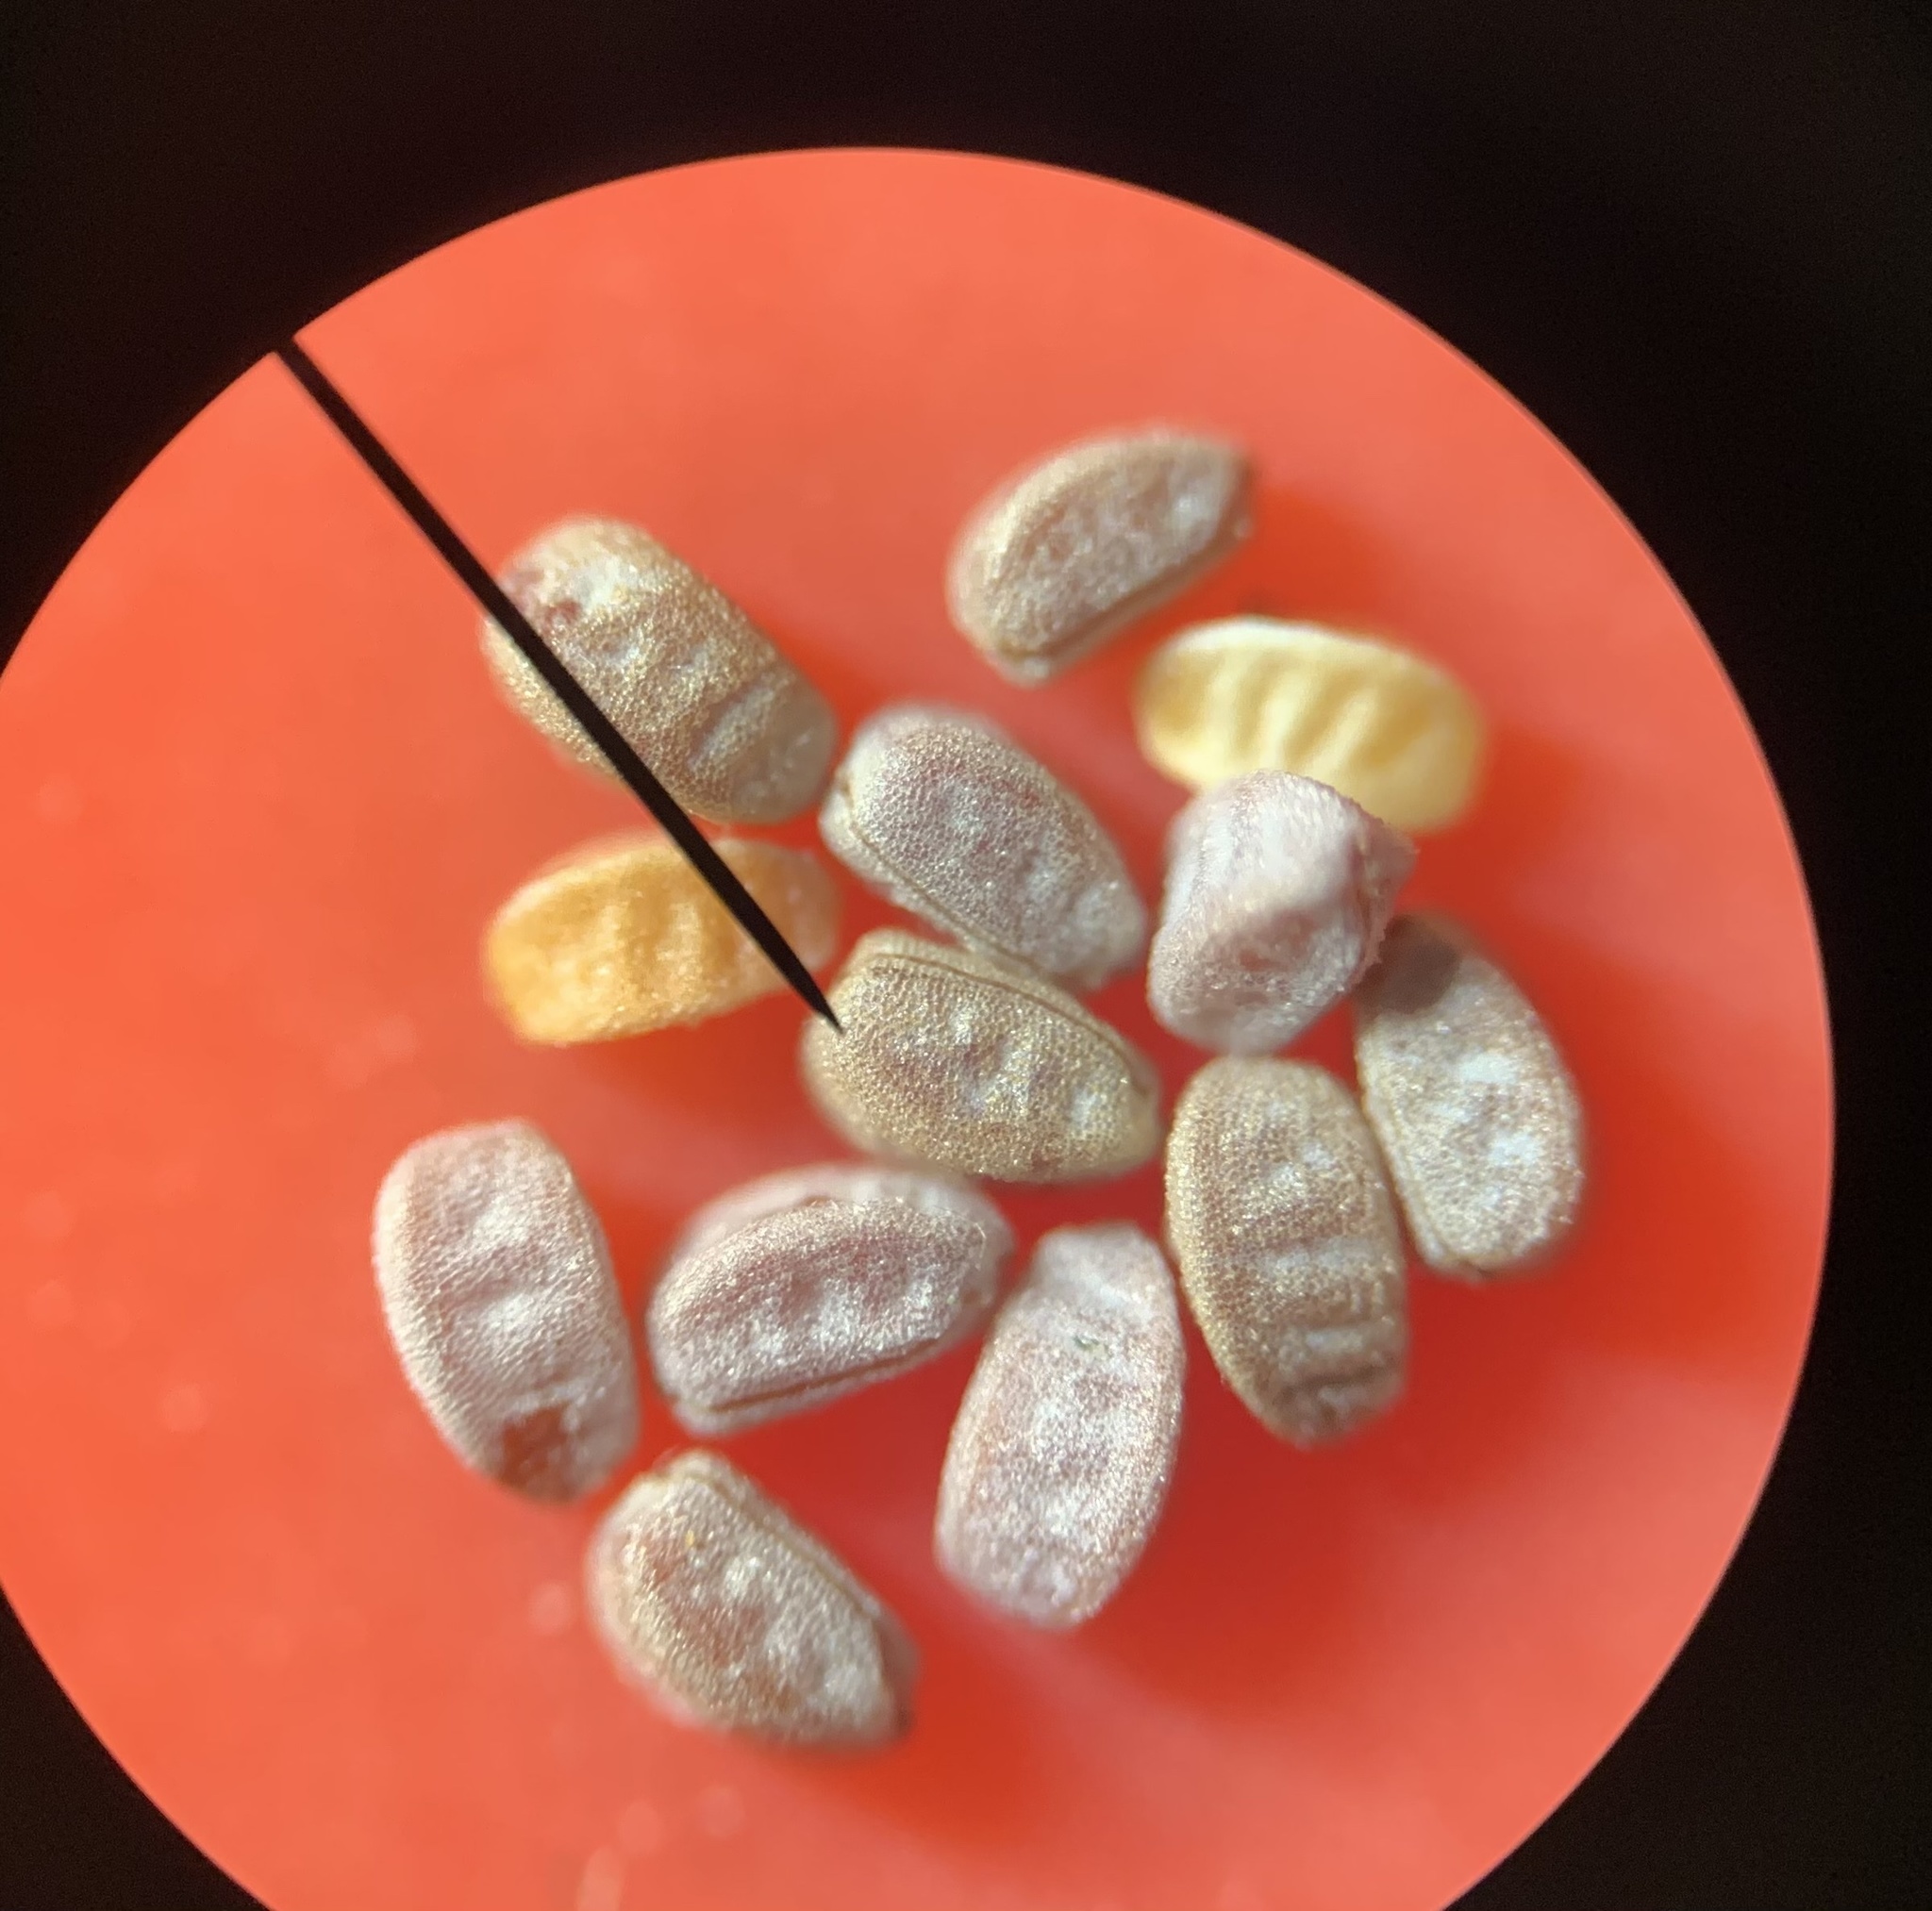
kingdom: Plantae
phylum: Tracheophyta
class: Magnoliopsida
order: Malpighiales
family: Euphorbiaceae
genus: Euphorbia
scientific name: Euphorbia maculata
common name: Spotted spurge
